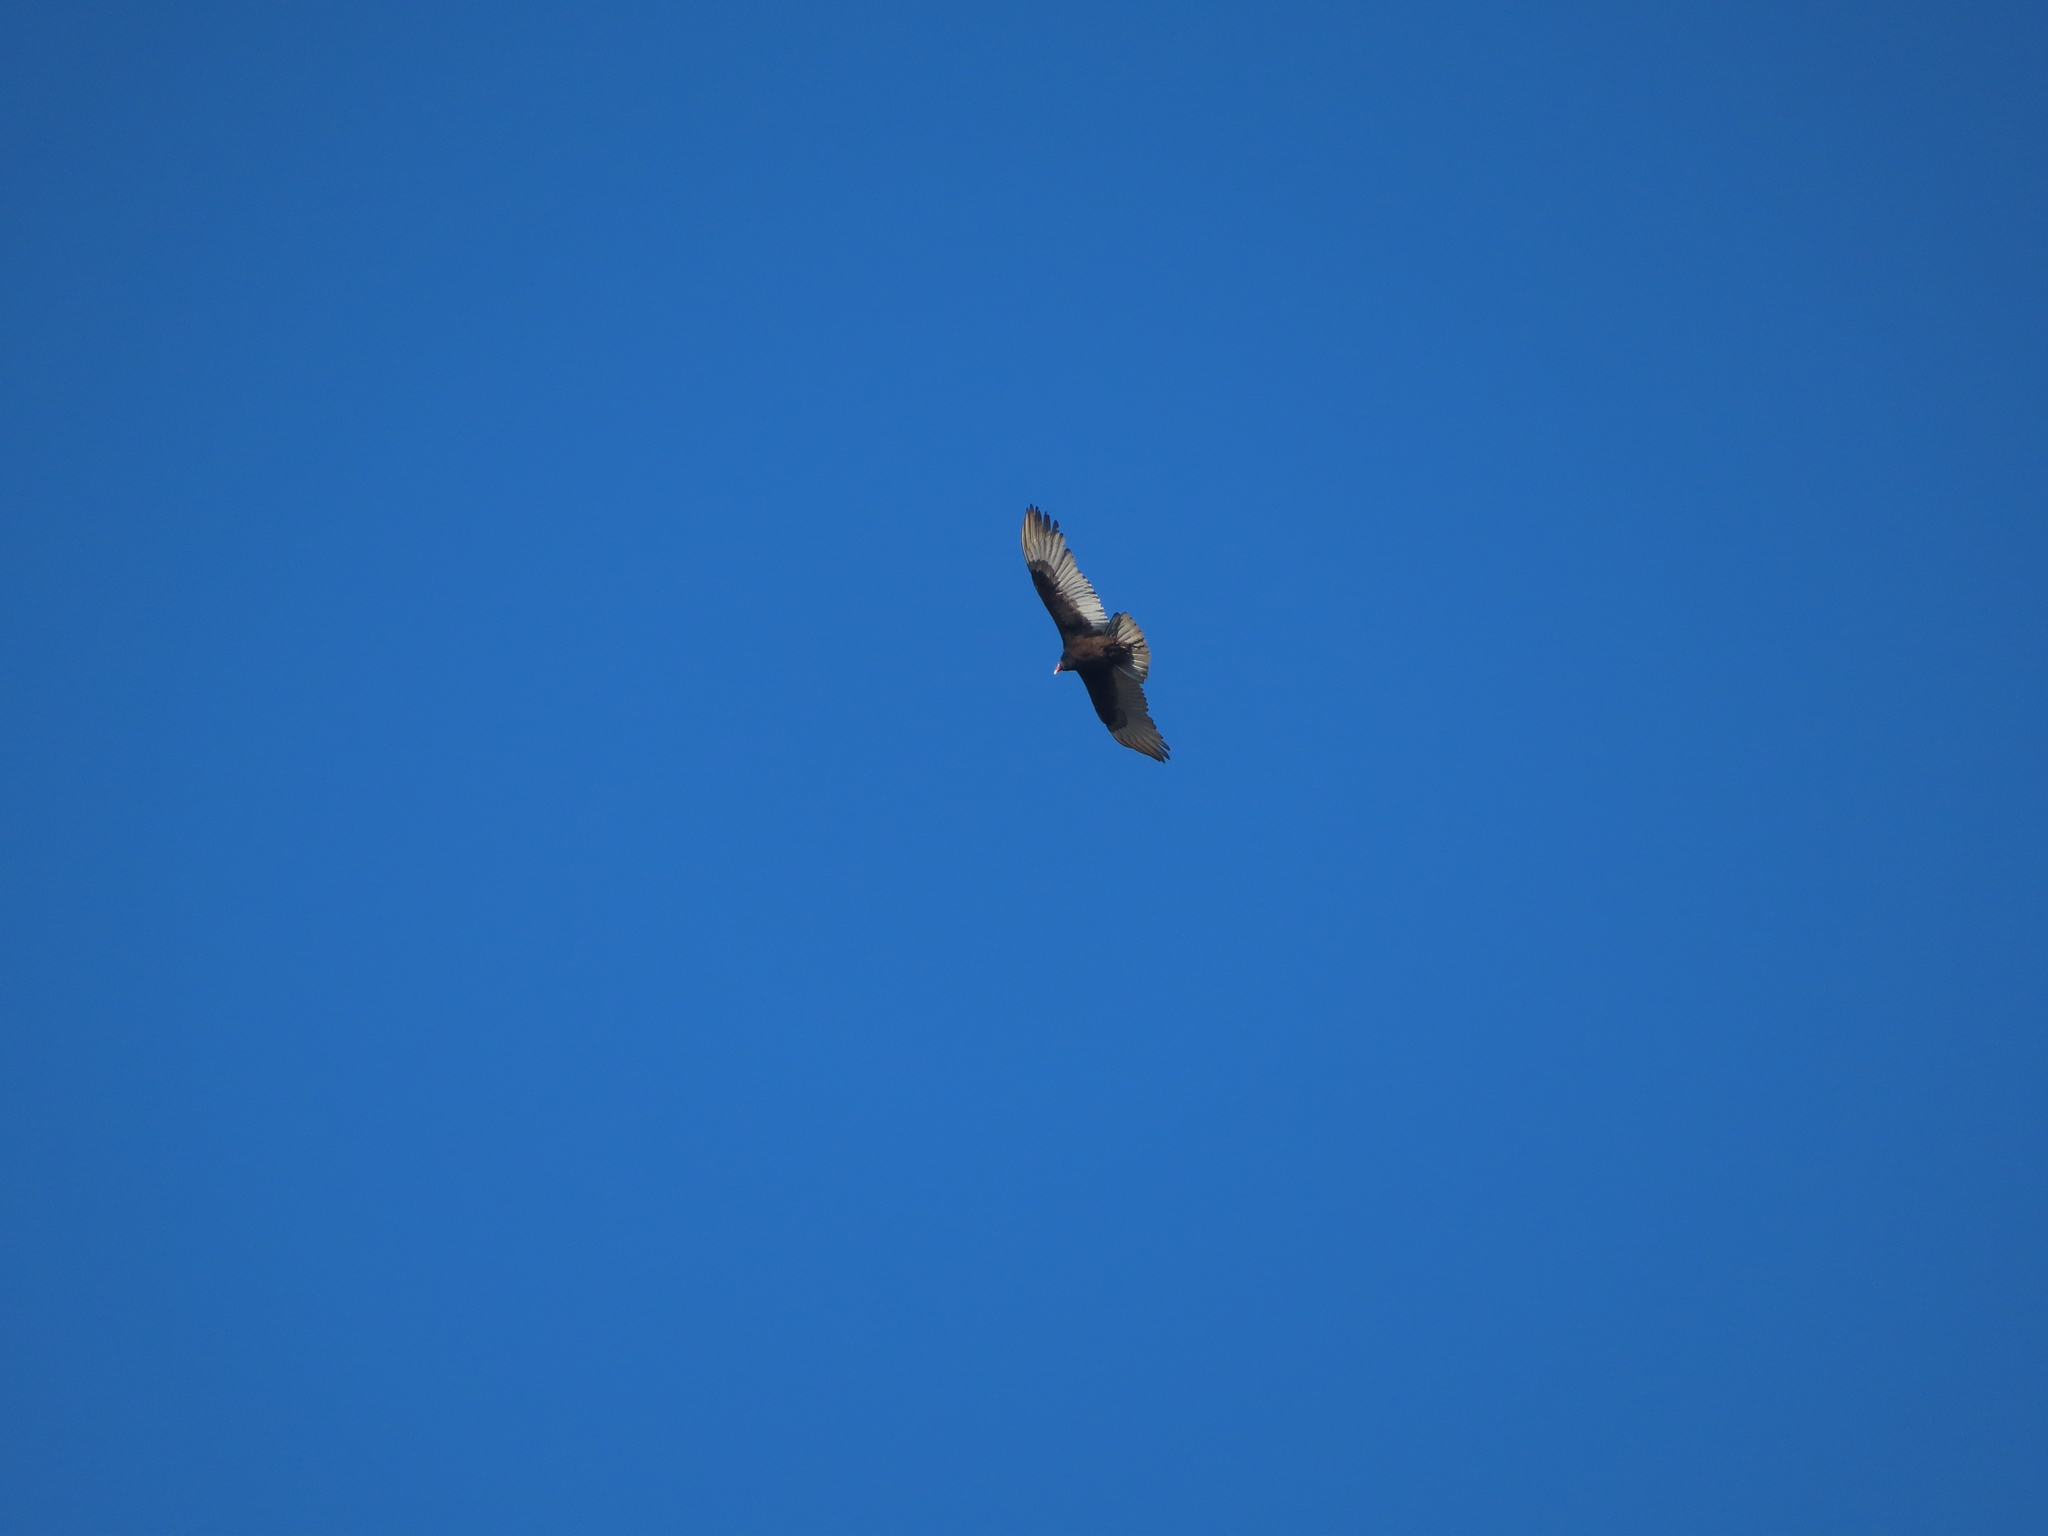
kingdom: Animalia
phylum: Chordata
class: Aves
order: Accipitriformes
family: Cathartidae
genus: Cathartes
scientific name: Cathartes aura
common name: Turkey vulture
